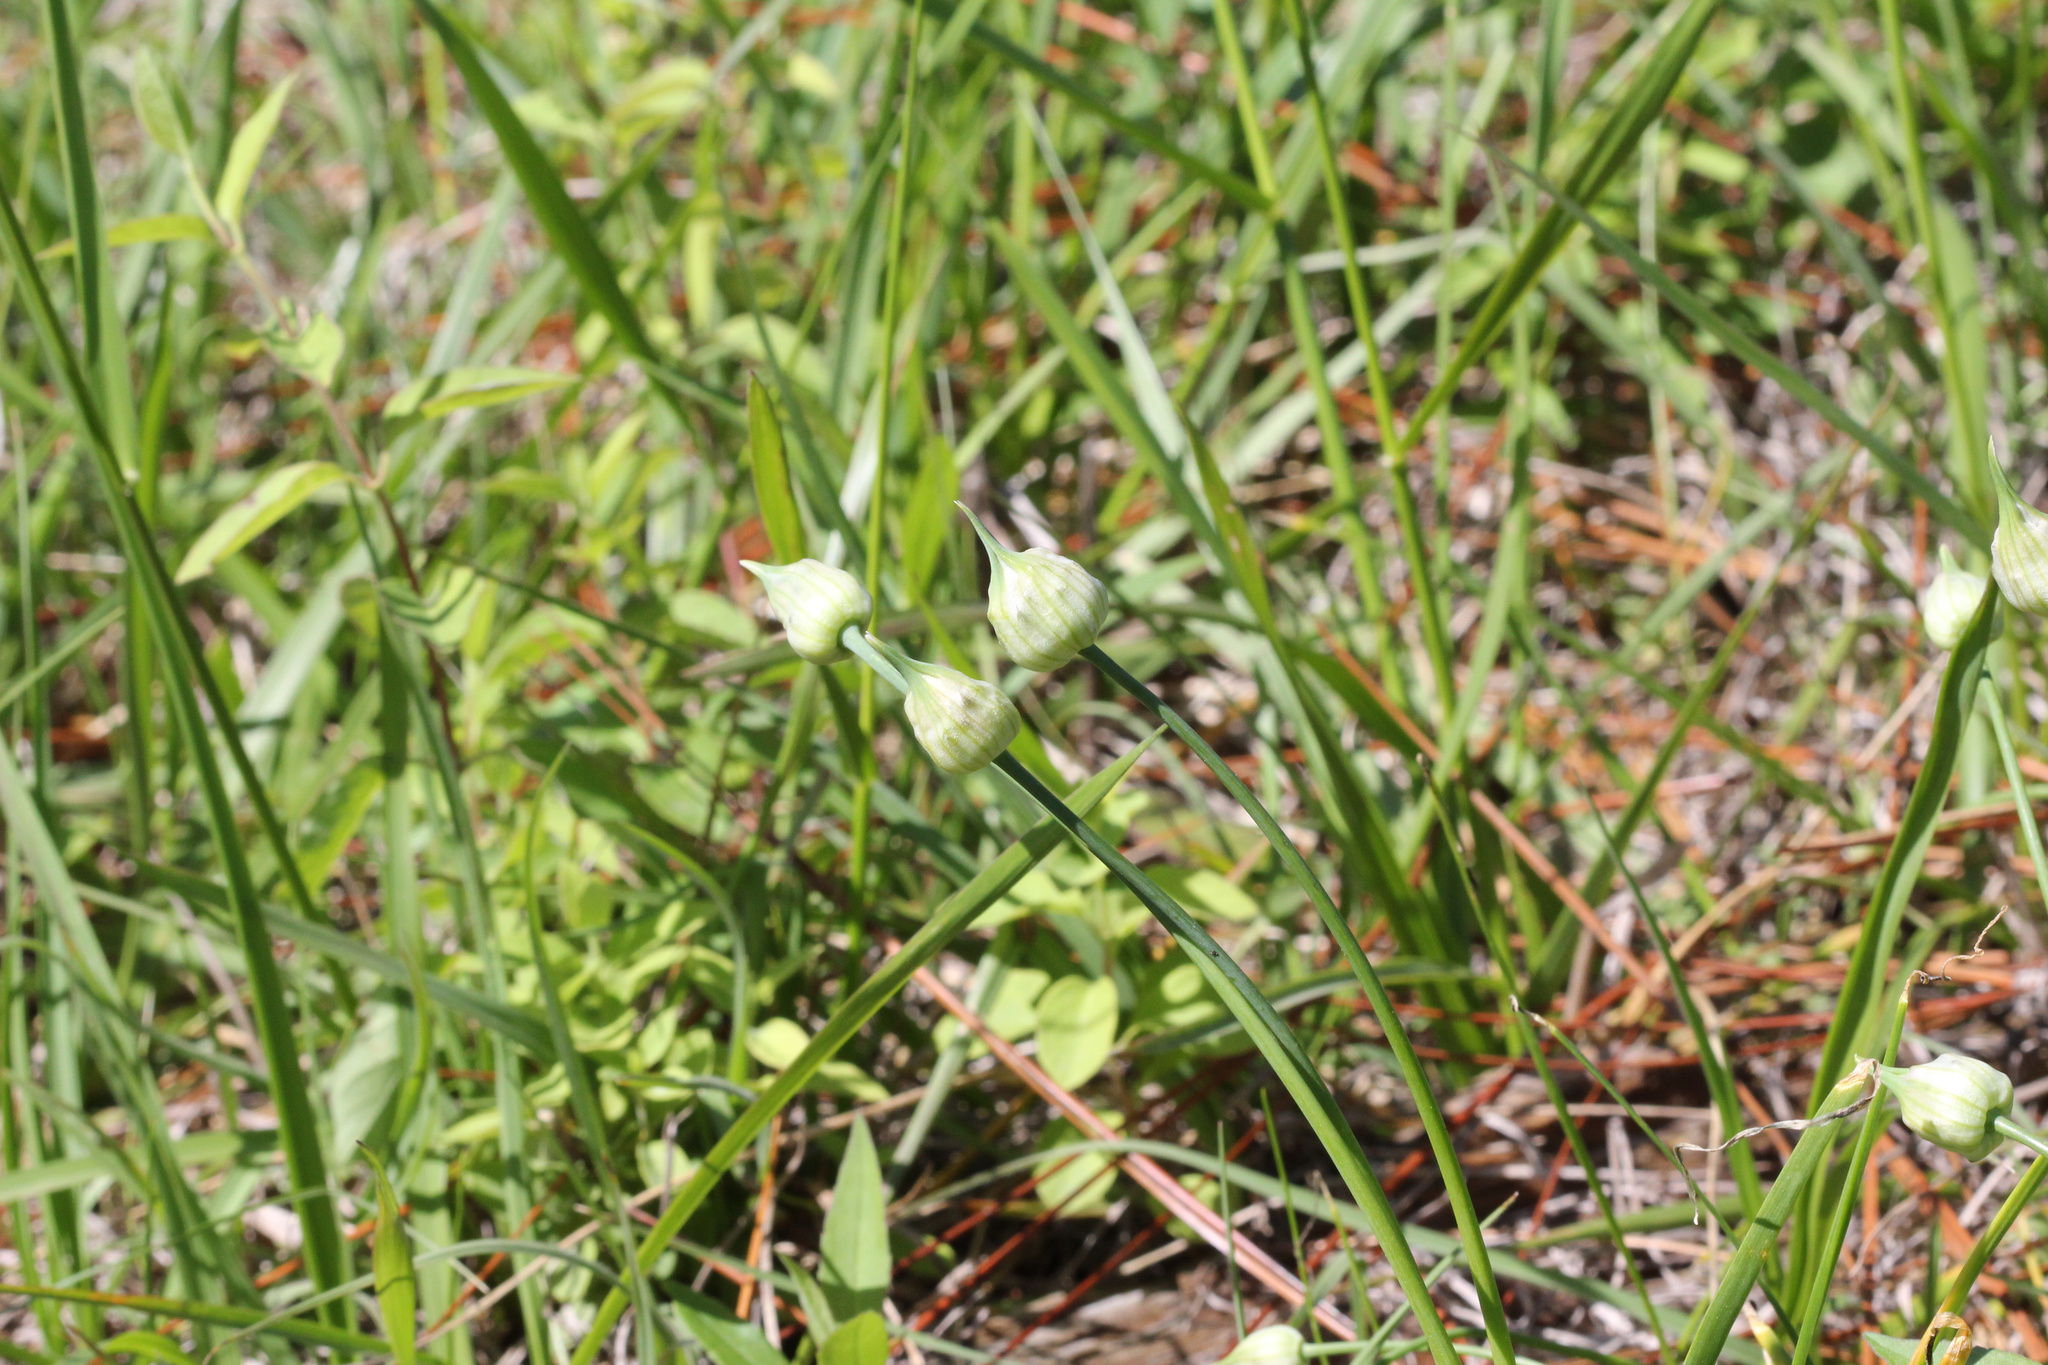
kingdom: Plantae
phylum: Tracheophyta
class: Liliopsida
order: Asparagales
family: Amaryllidaceae
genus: Allium
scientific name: Allium canadense
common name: Meadow garlic
